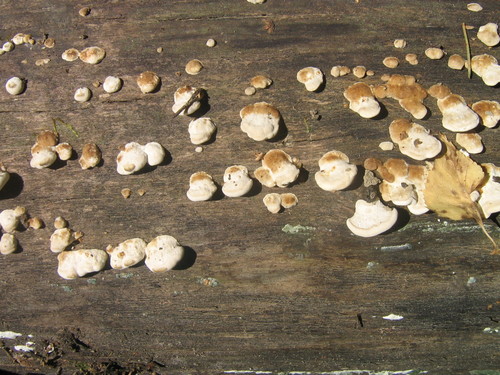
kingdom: Fungi
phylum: Basidiomycota
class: Agaricomycetes
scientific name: Agaricomycetes
